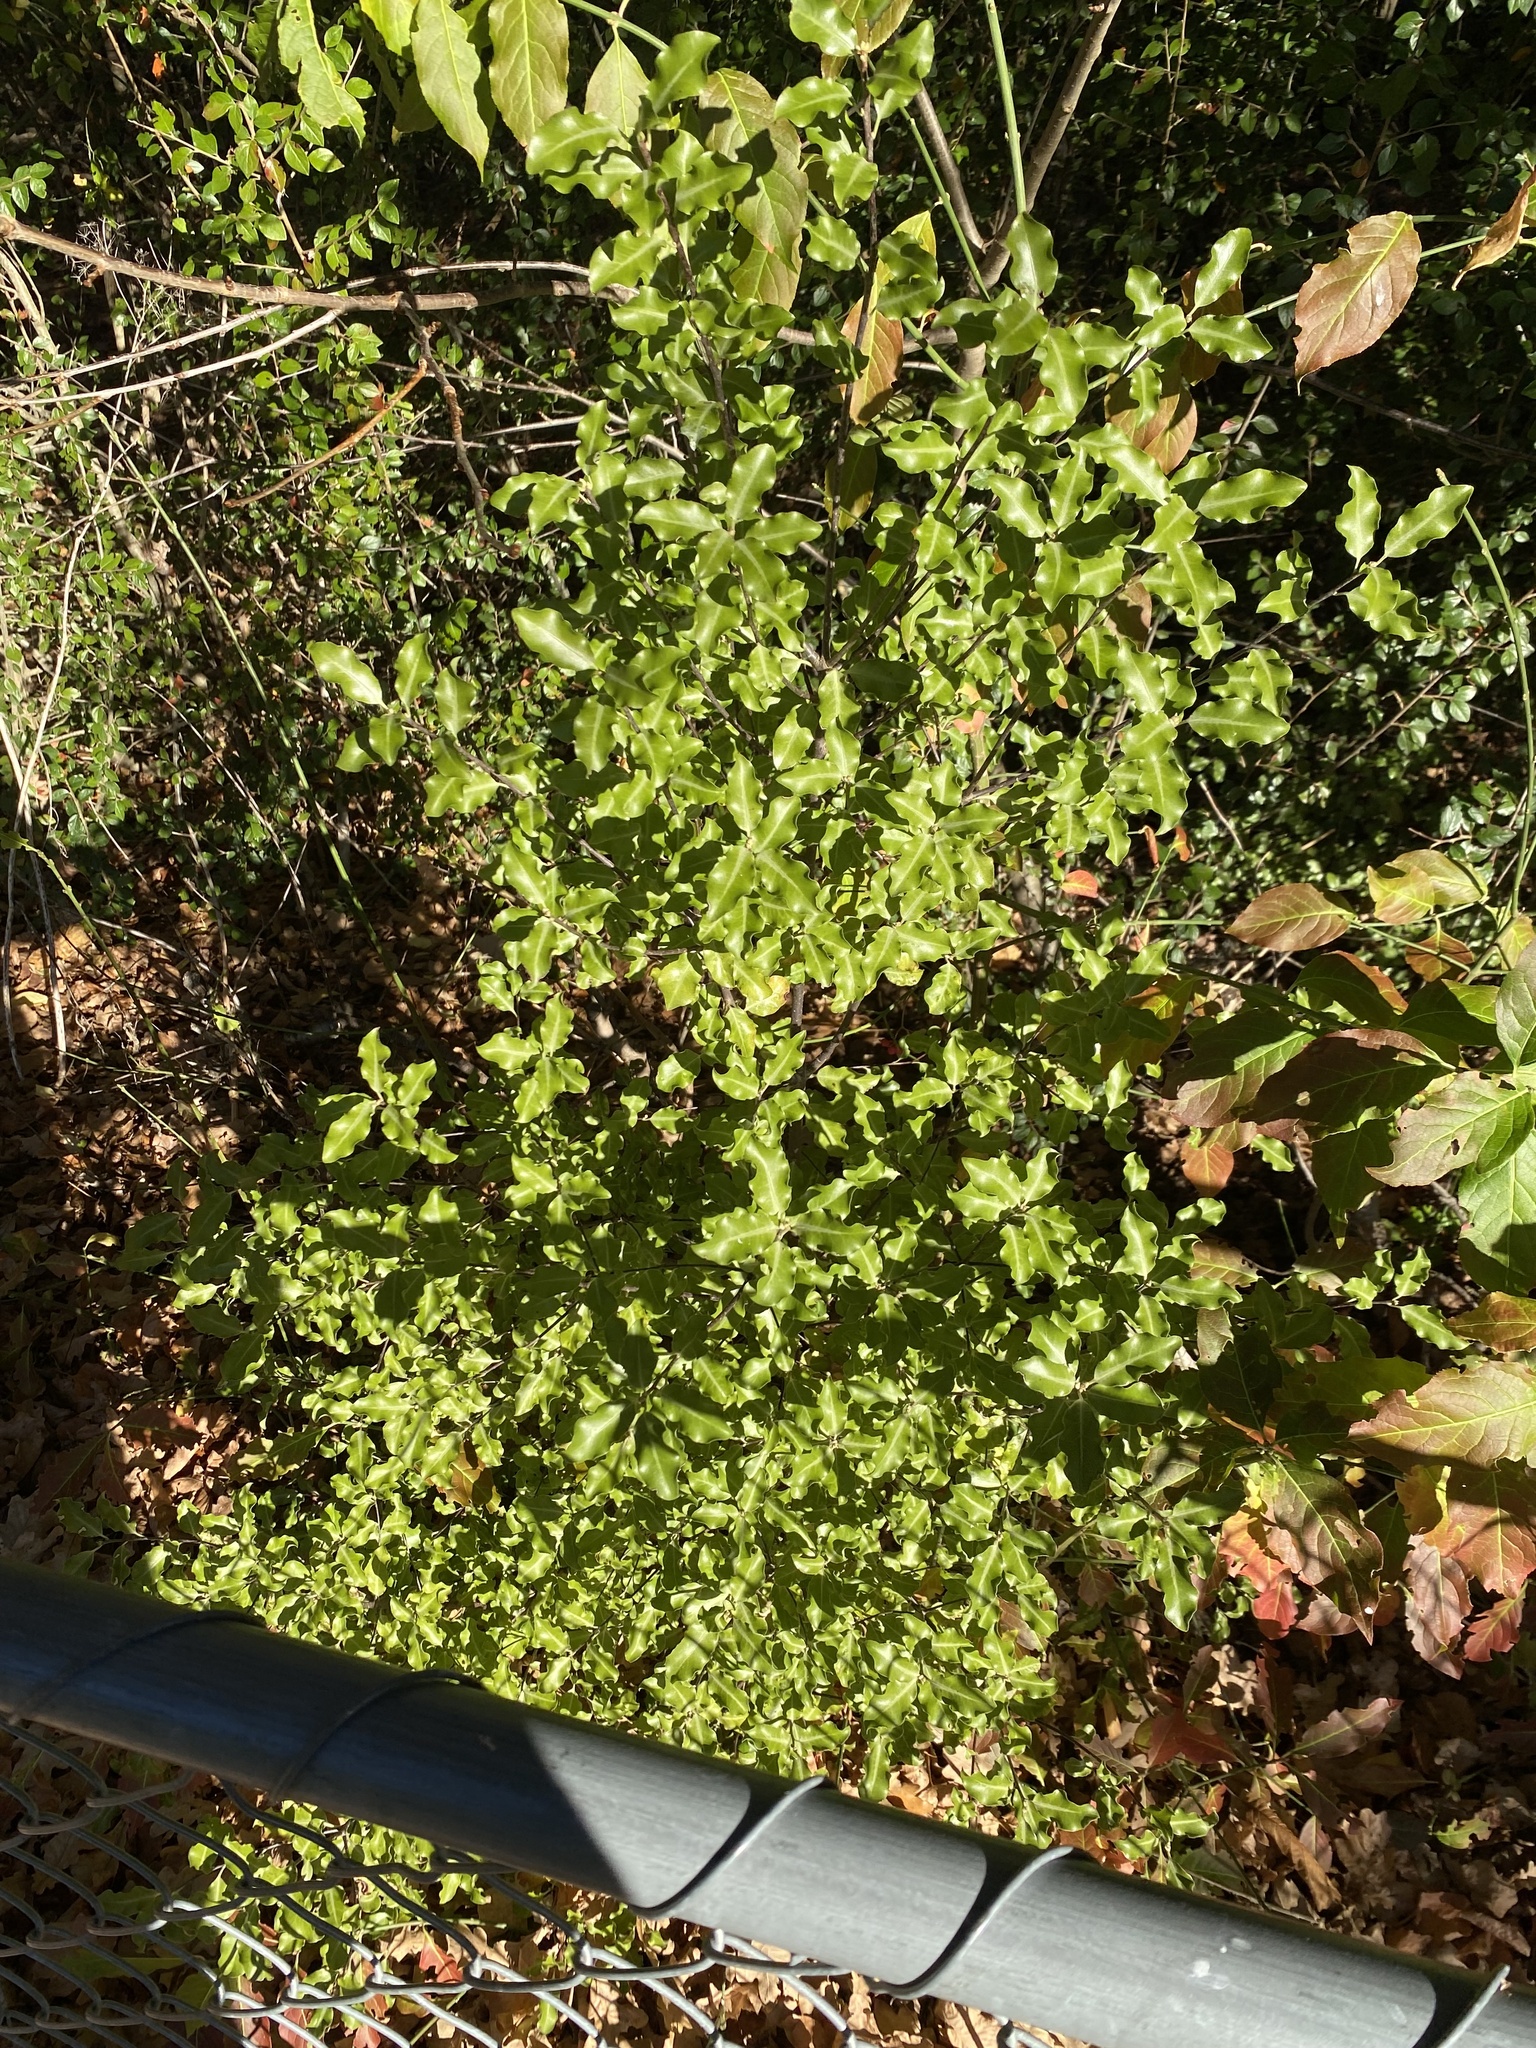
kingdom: Plantae
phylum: Tracheophyta
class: Magnoliopsida
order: Apiales
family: Pittosporaceae
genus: Pittosporum
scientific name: Pittosporum tenuifolium
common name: Kohuhu
